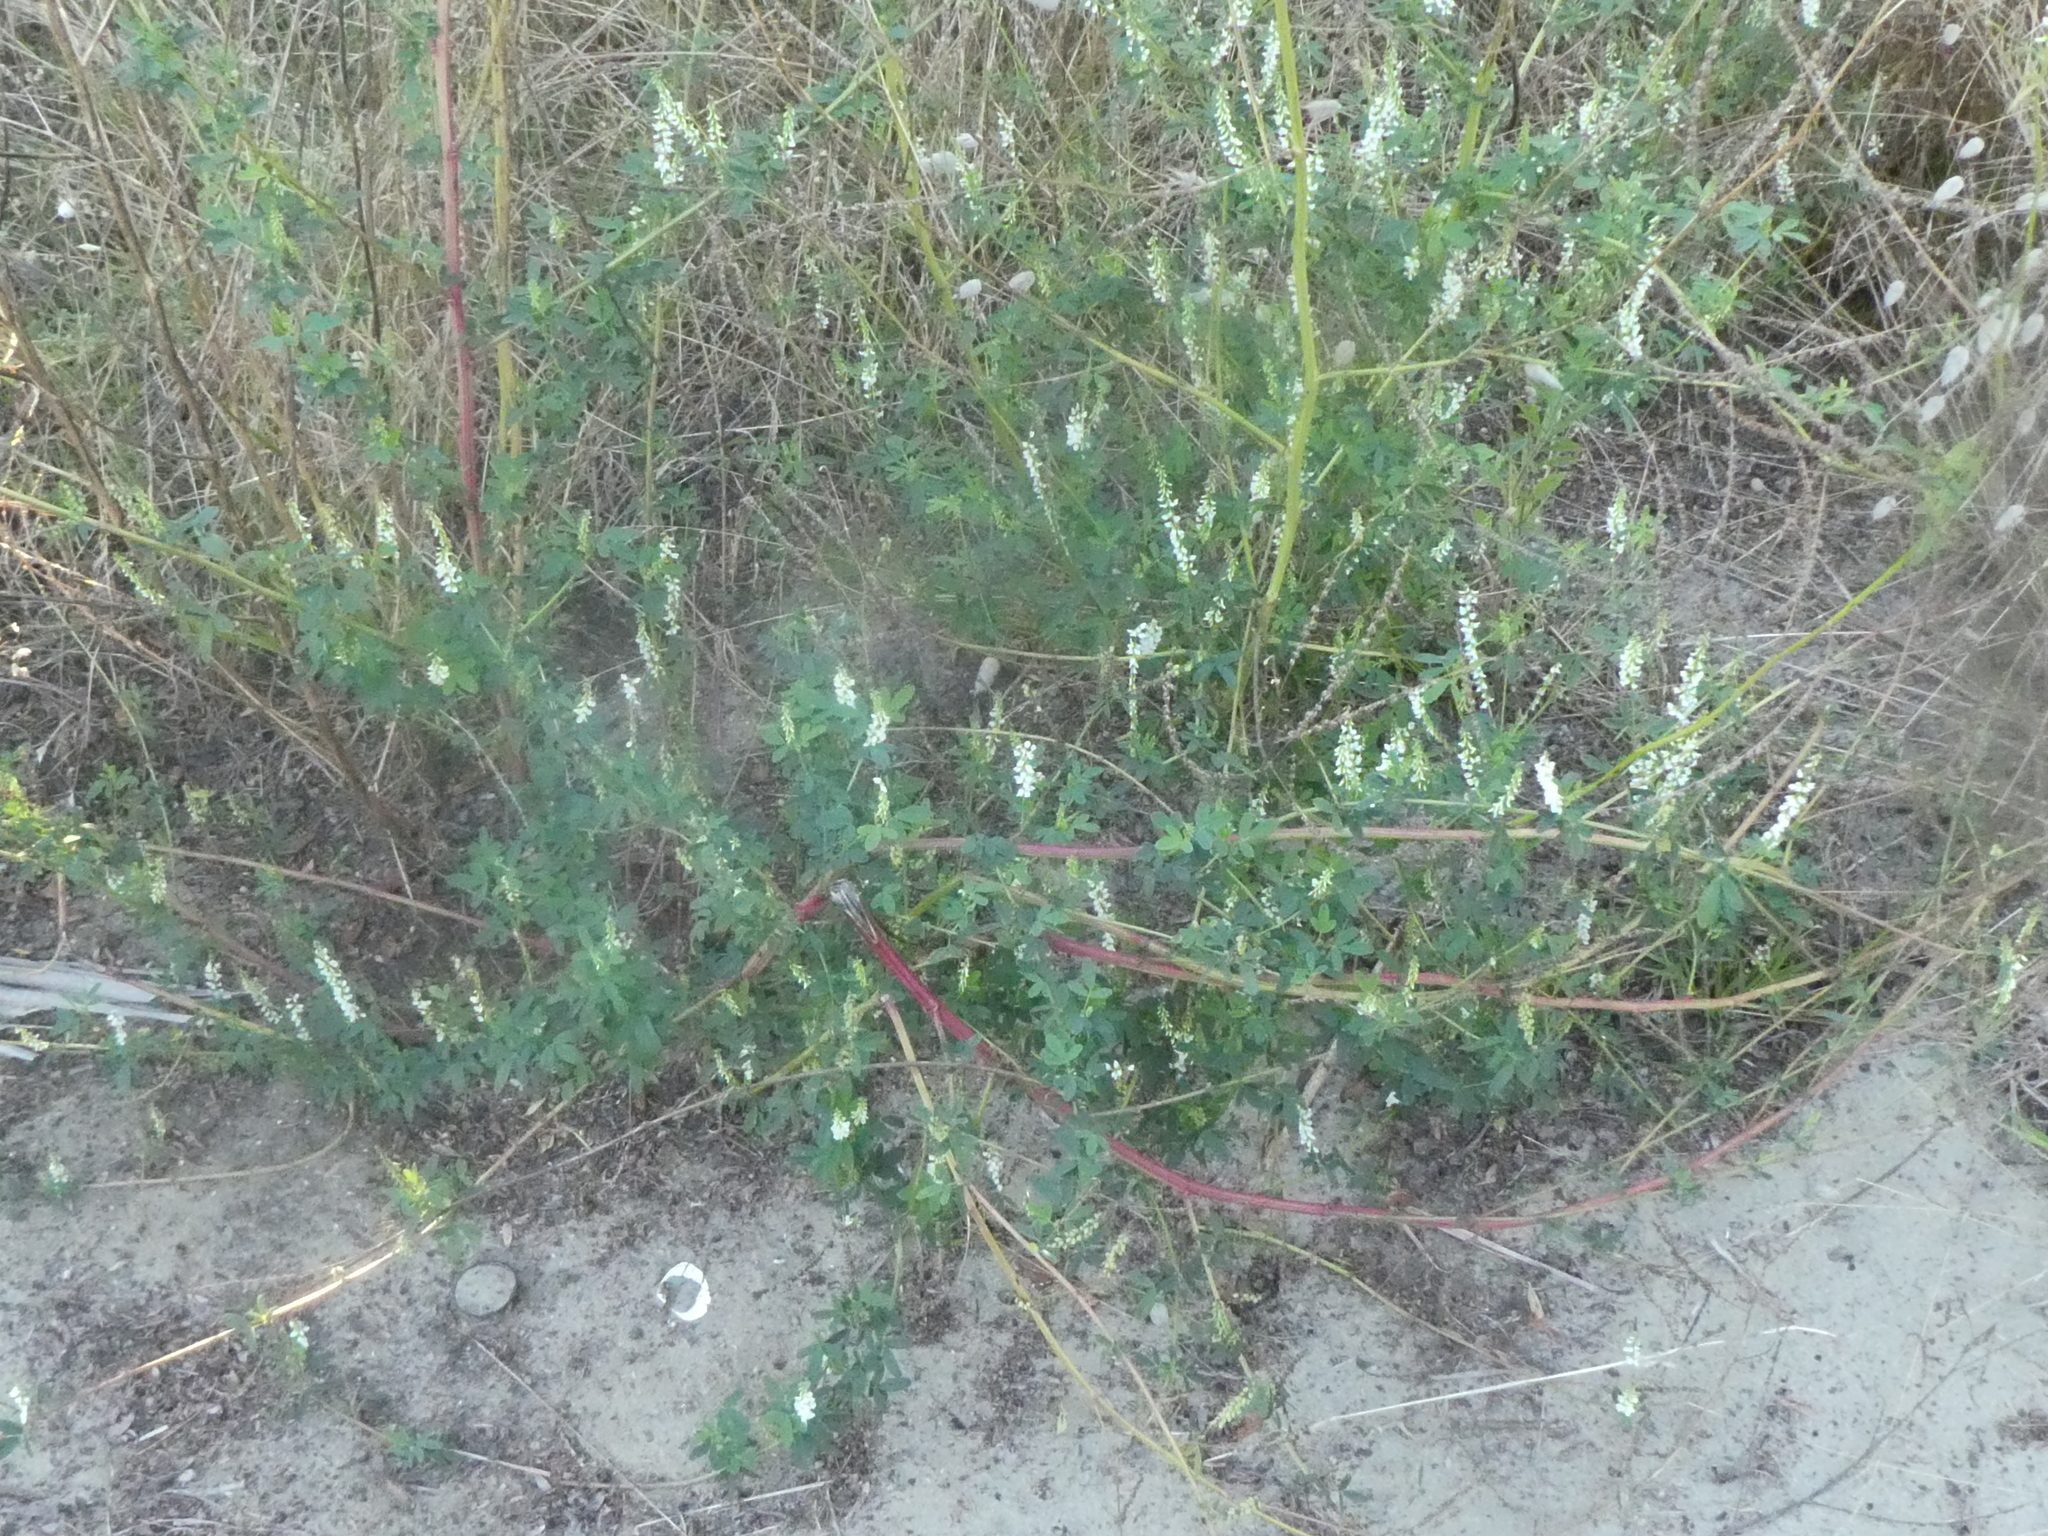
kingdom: Plantae
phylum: Tracheophyta
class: Magnoliopsida
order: Fabales
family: Fabaceae
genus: Melilotus
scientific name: Melilotus albus
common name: White melilot
